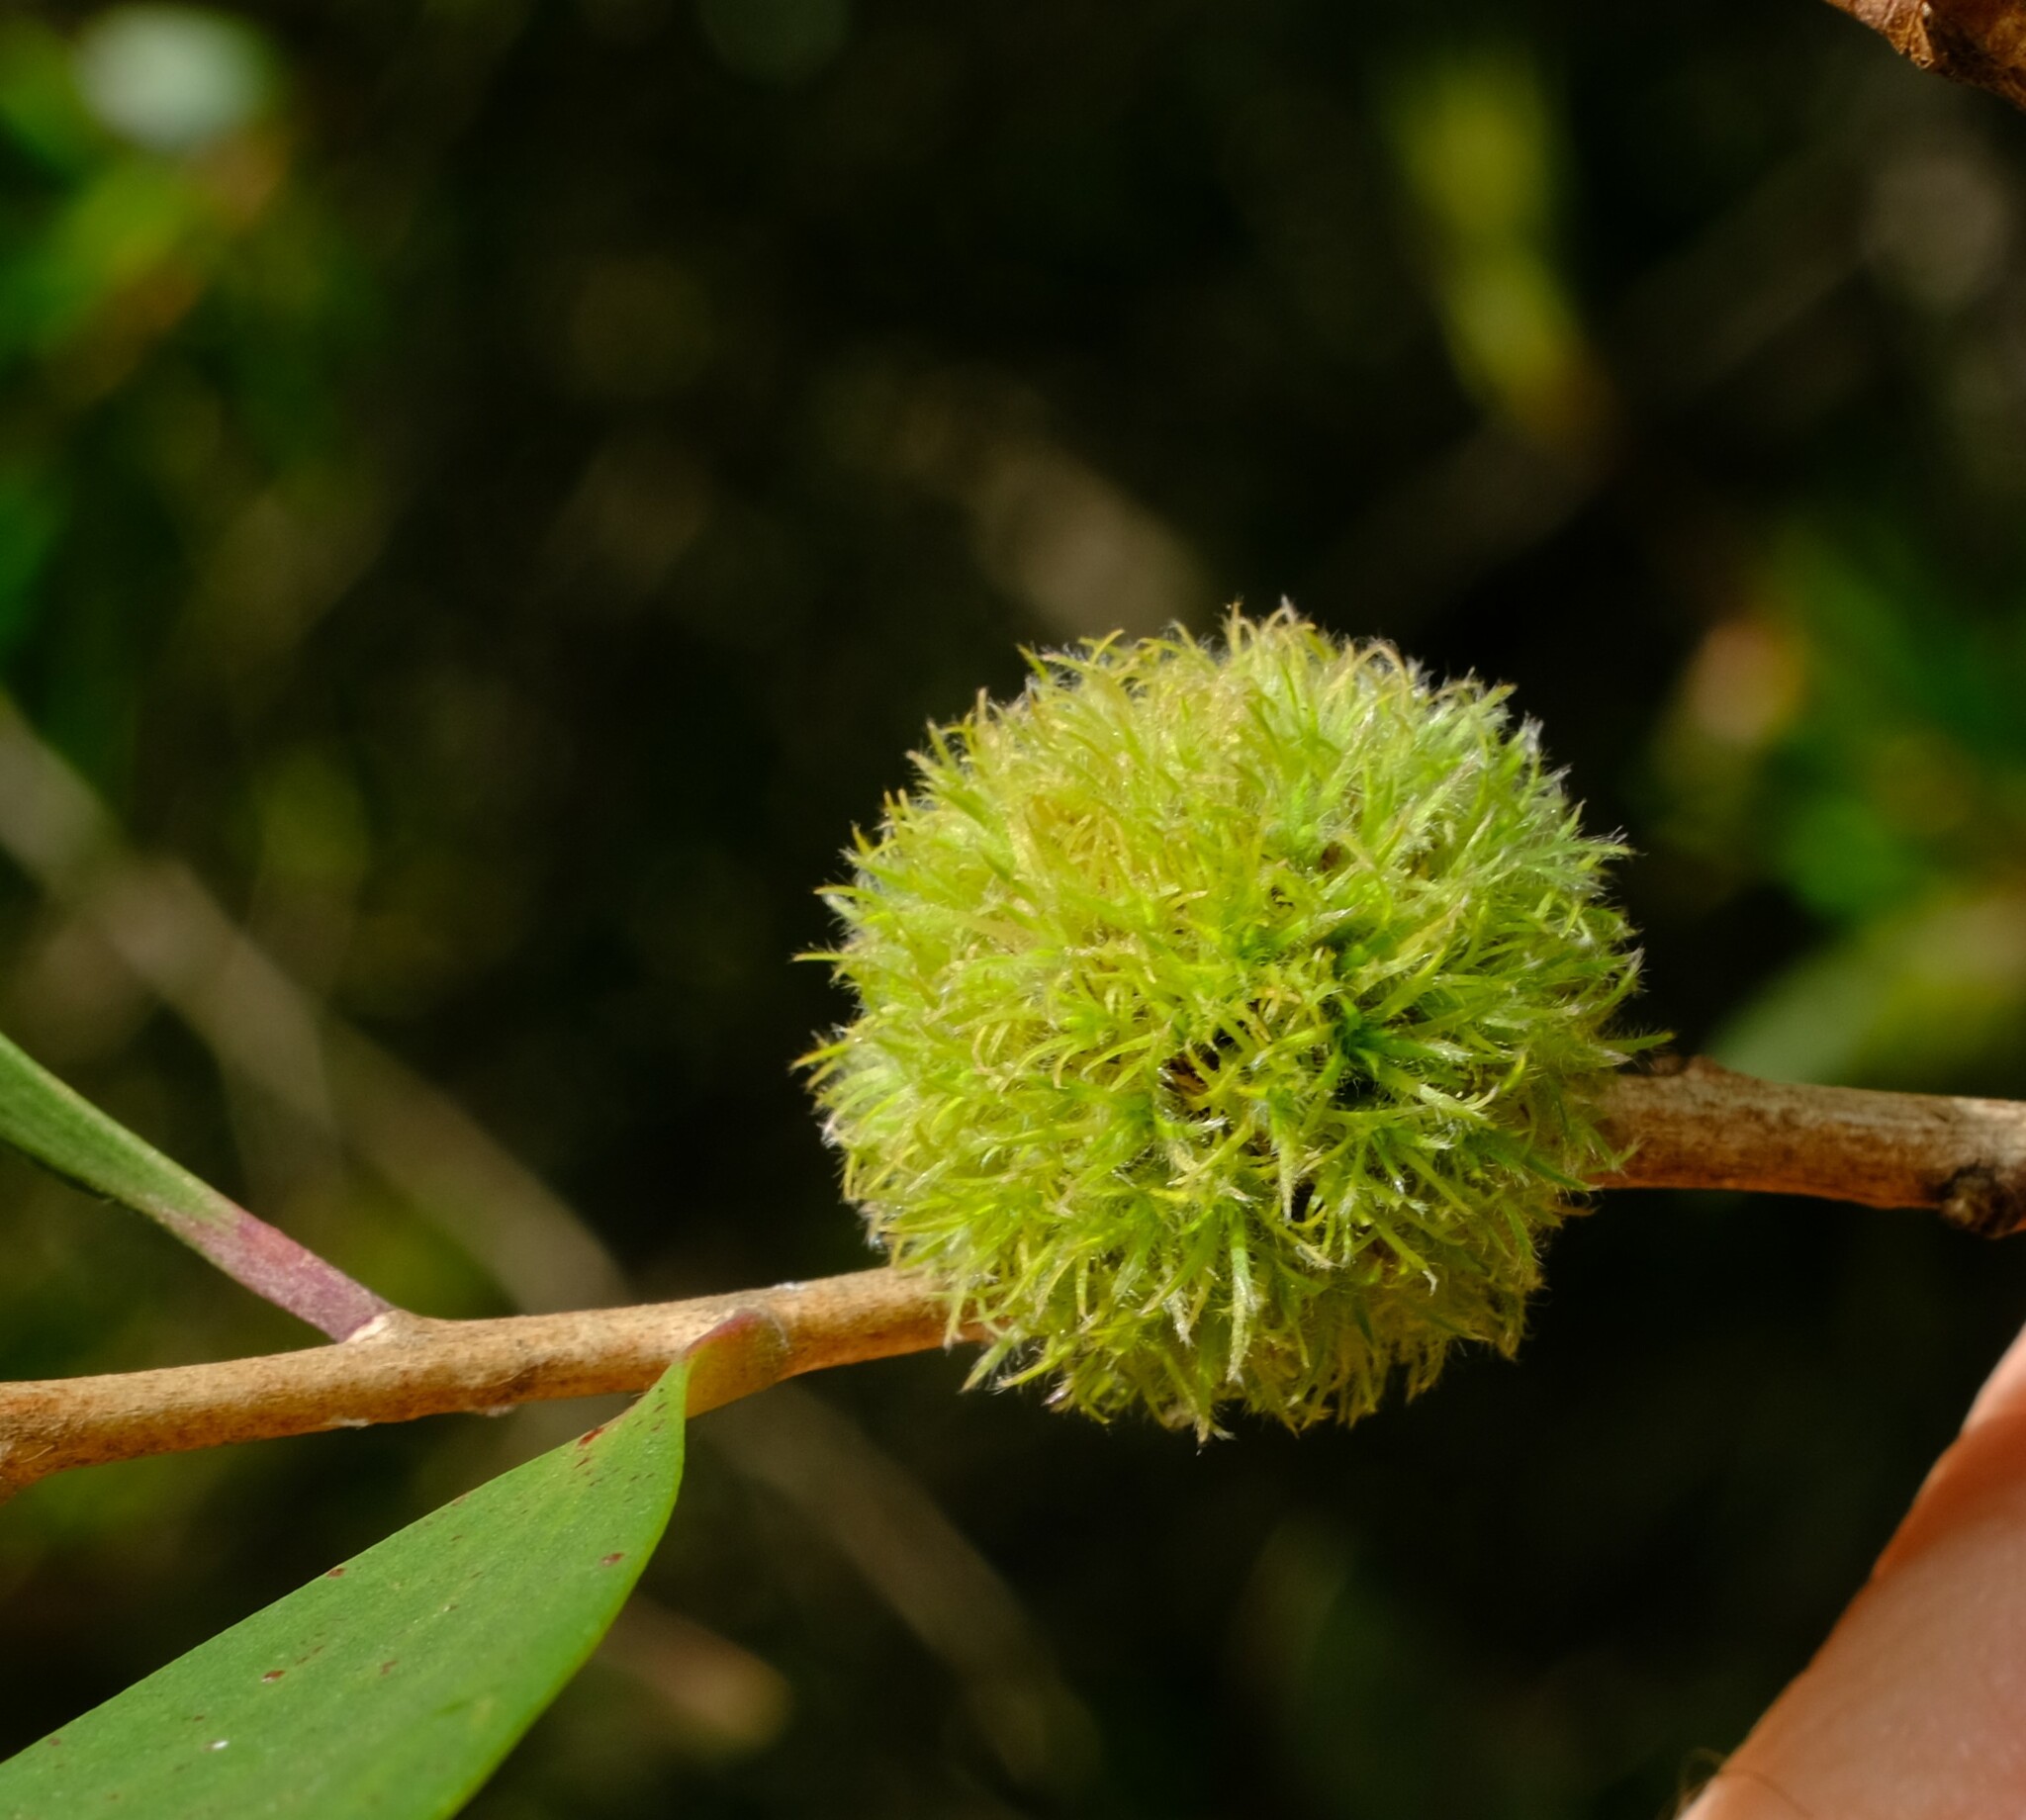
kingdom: Animalia
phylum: Arthropoda
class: Insecta
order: Hemiptera
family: Beesoniidae
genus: Beesonia
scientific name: Beesonia ferrugineus
